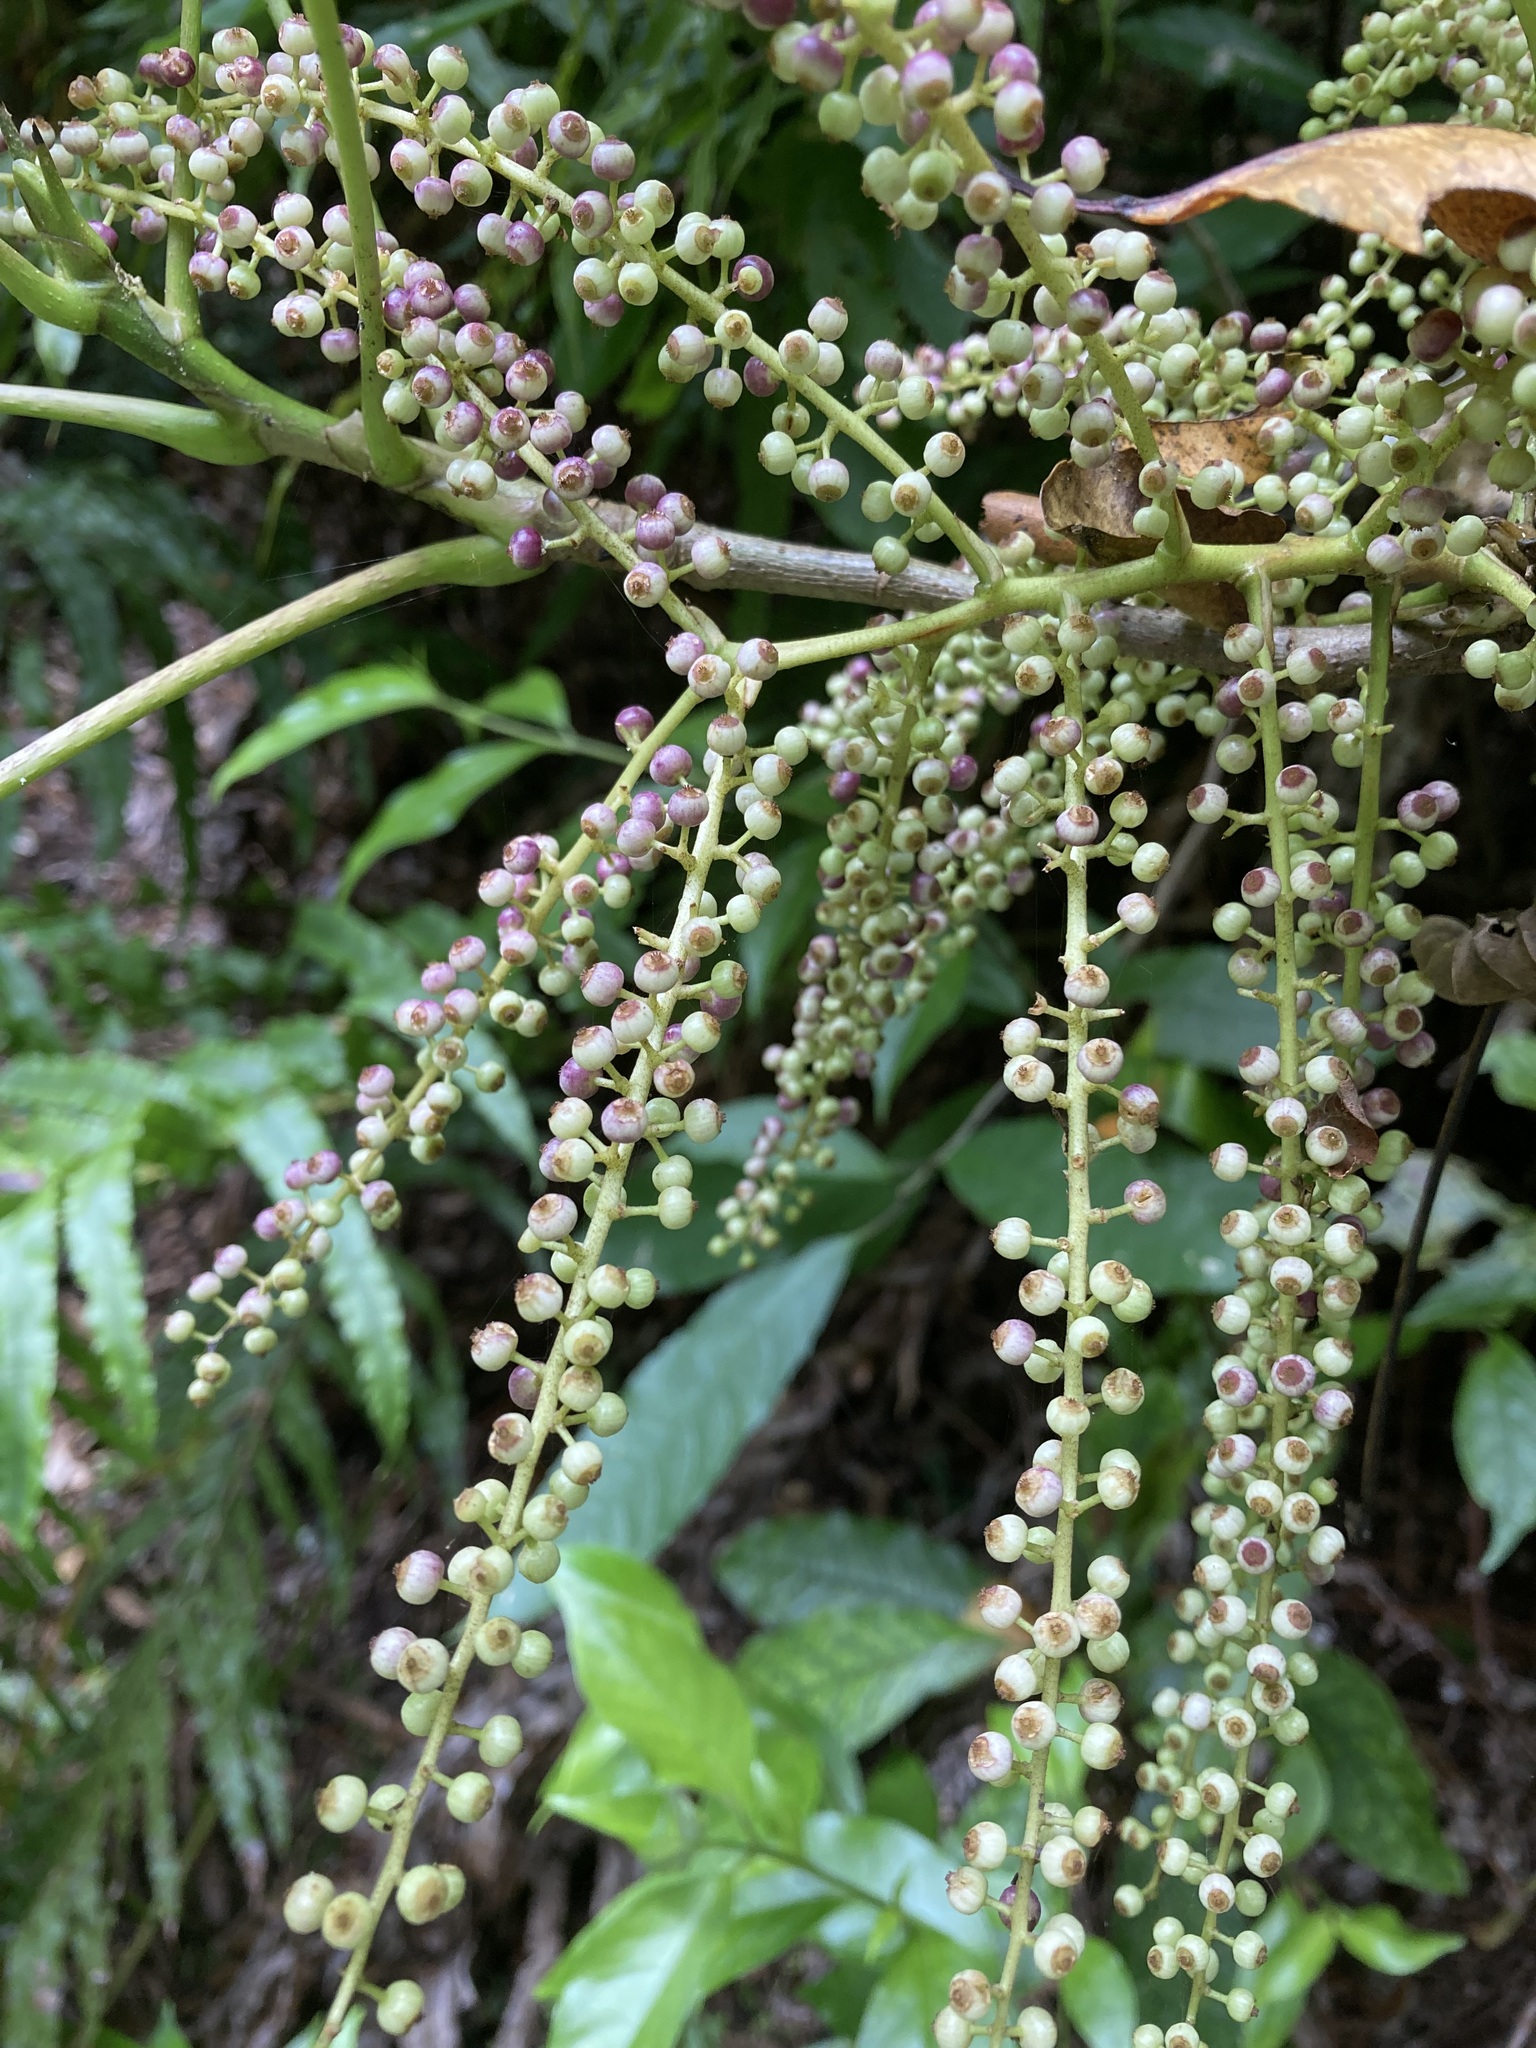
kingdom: Plantae
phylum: Tracheophyta
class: Magnoliopsida
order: Apiales
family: Araliaceae
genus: Schefflera
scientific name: Schefflera digitata
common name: Pate
